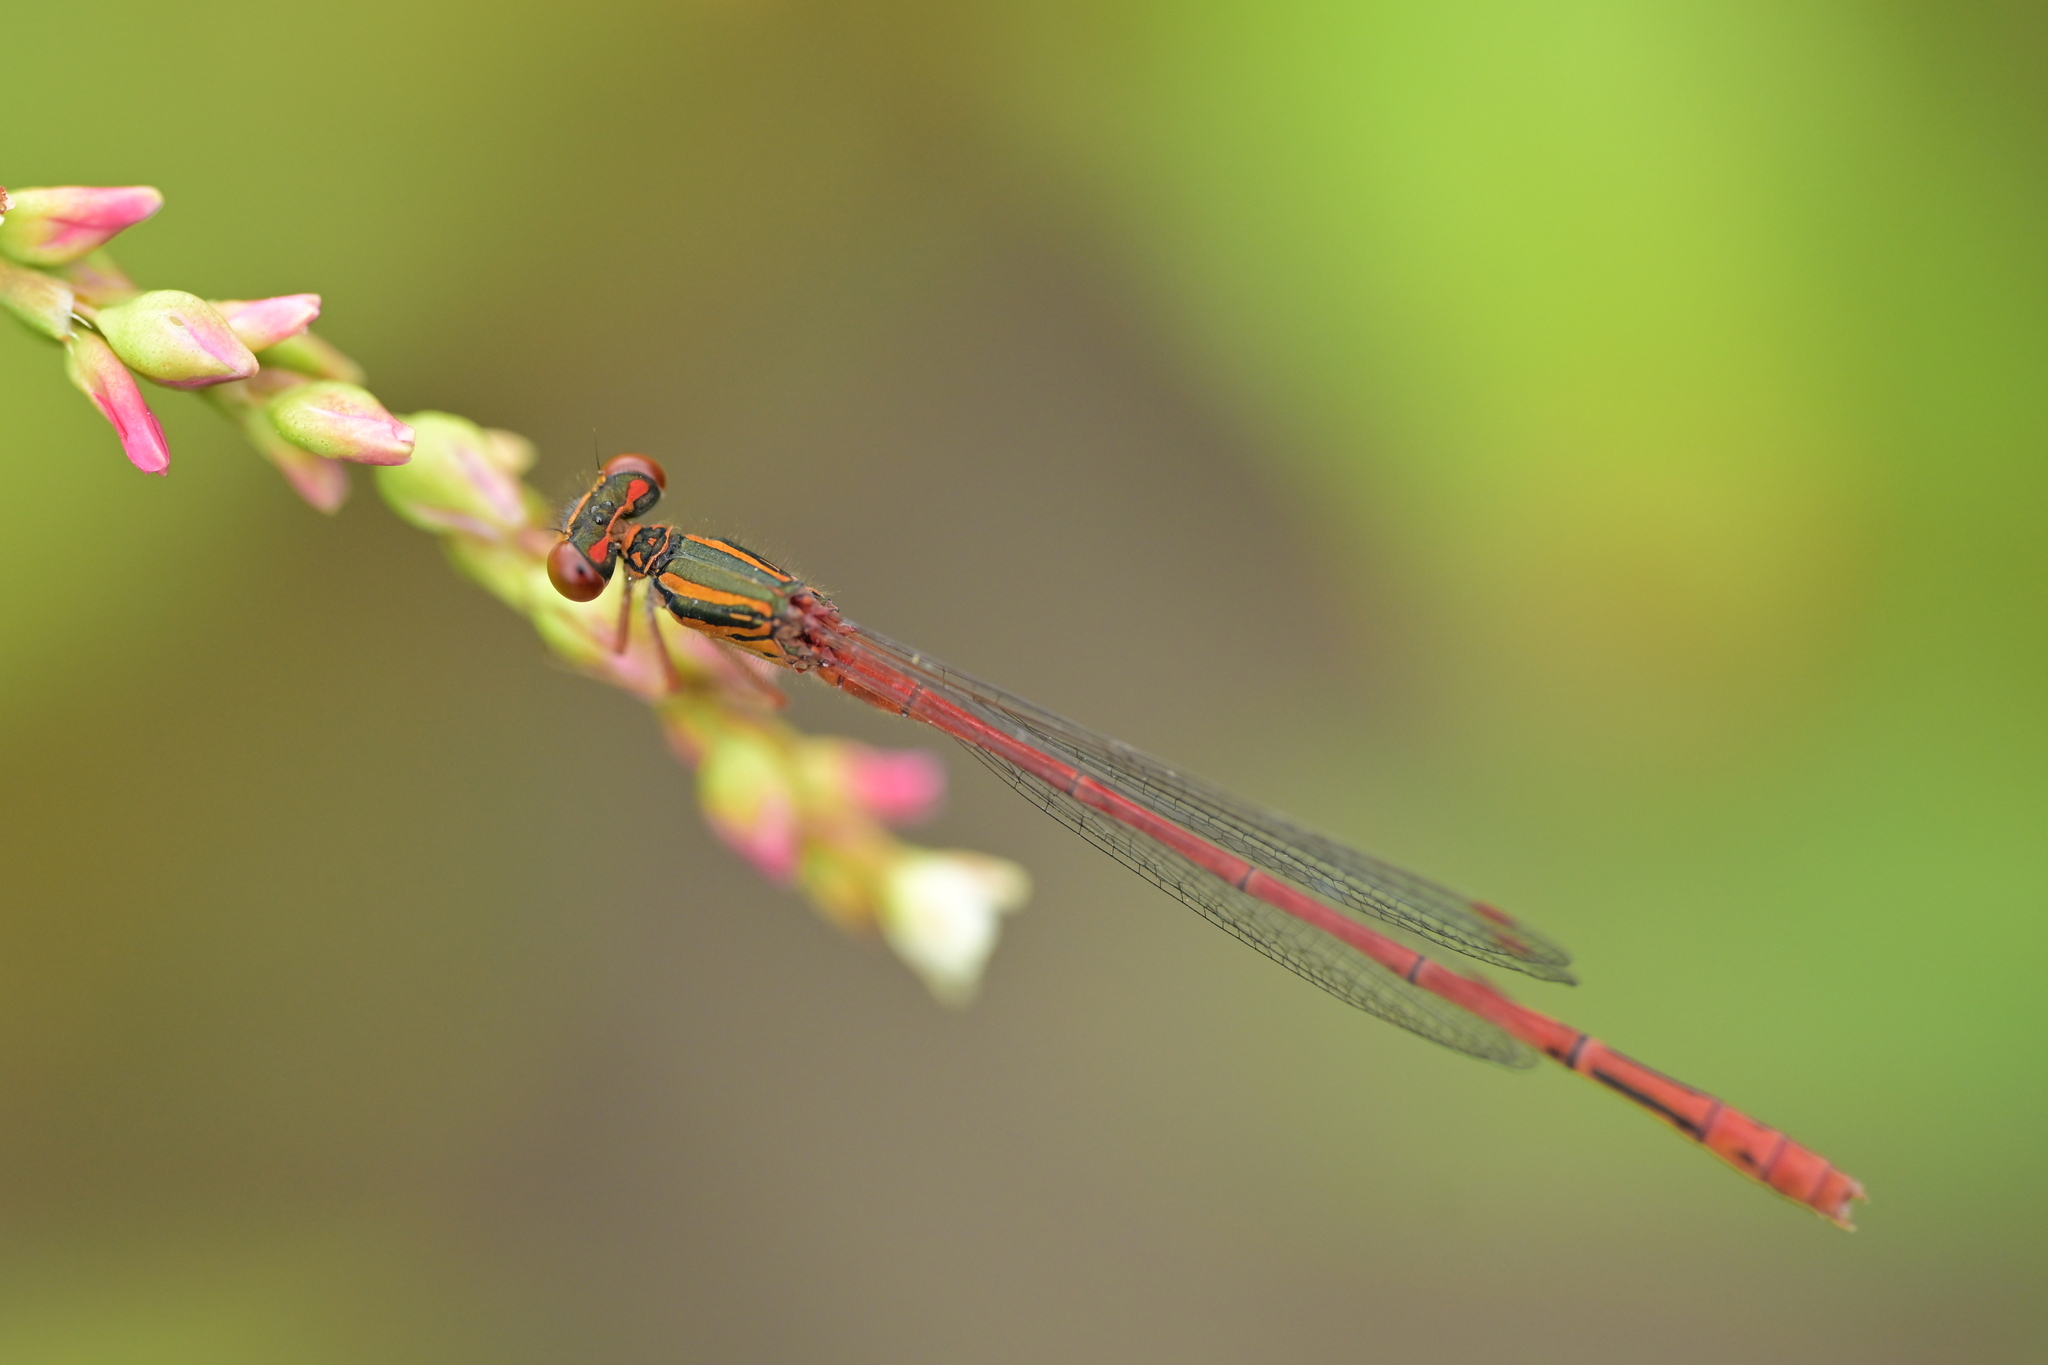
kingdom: Animalia
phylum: Arthropoda
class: Insecta
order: Odonata
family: Coenagrionidae
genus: Xanthocnemis
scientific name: Xanthocnemis zealandica
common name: Common redcoat damselfly
